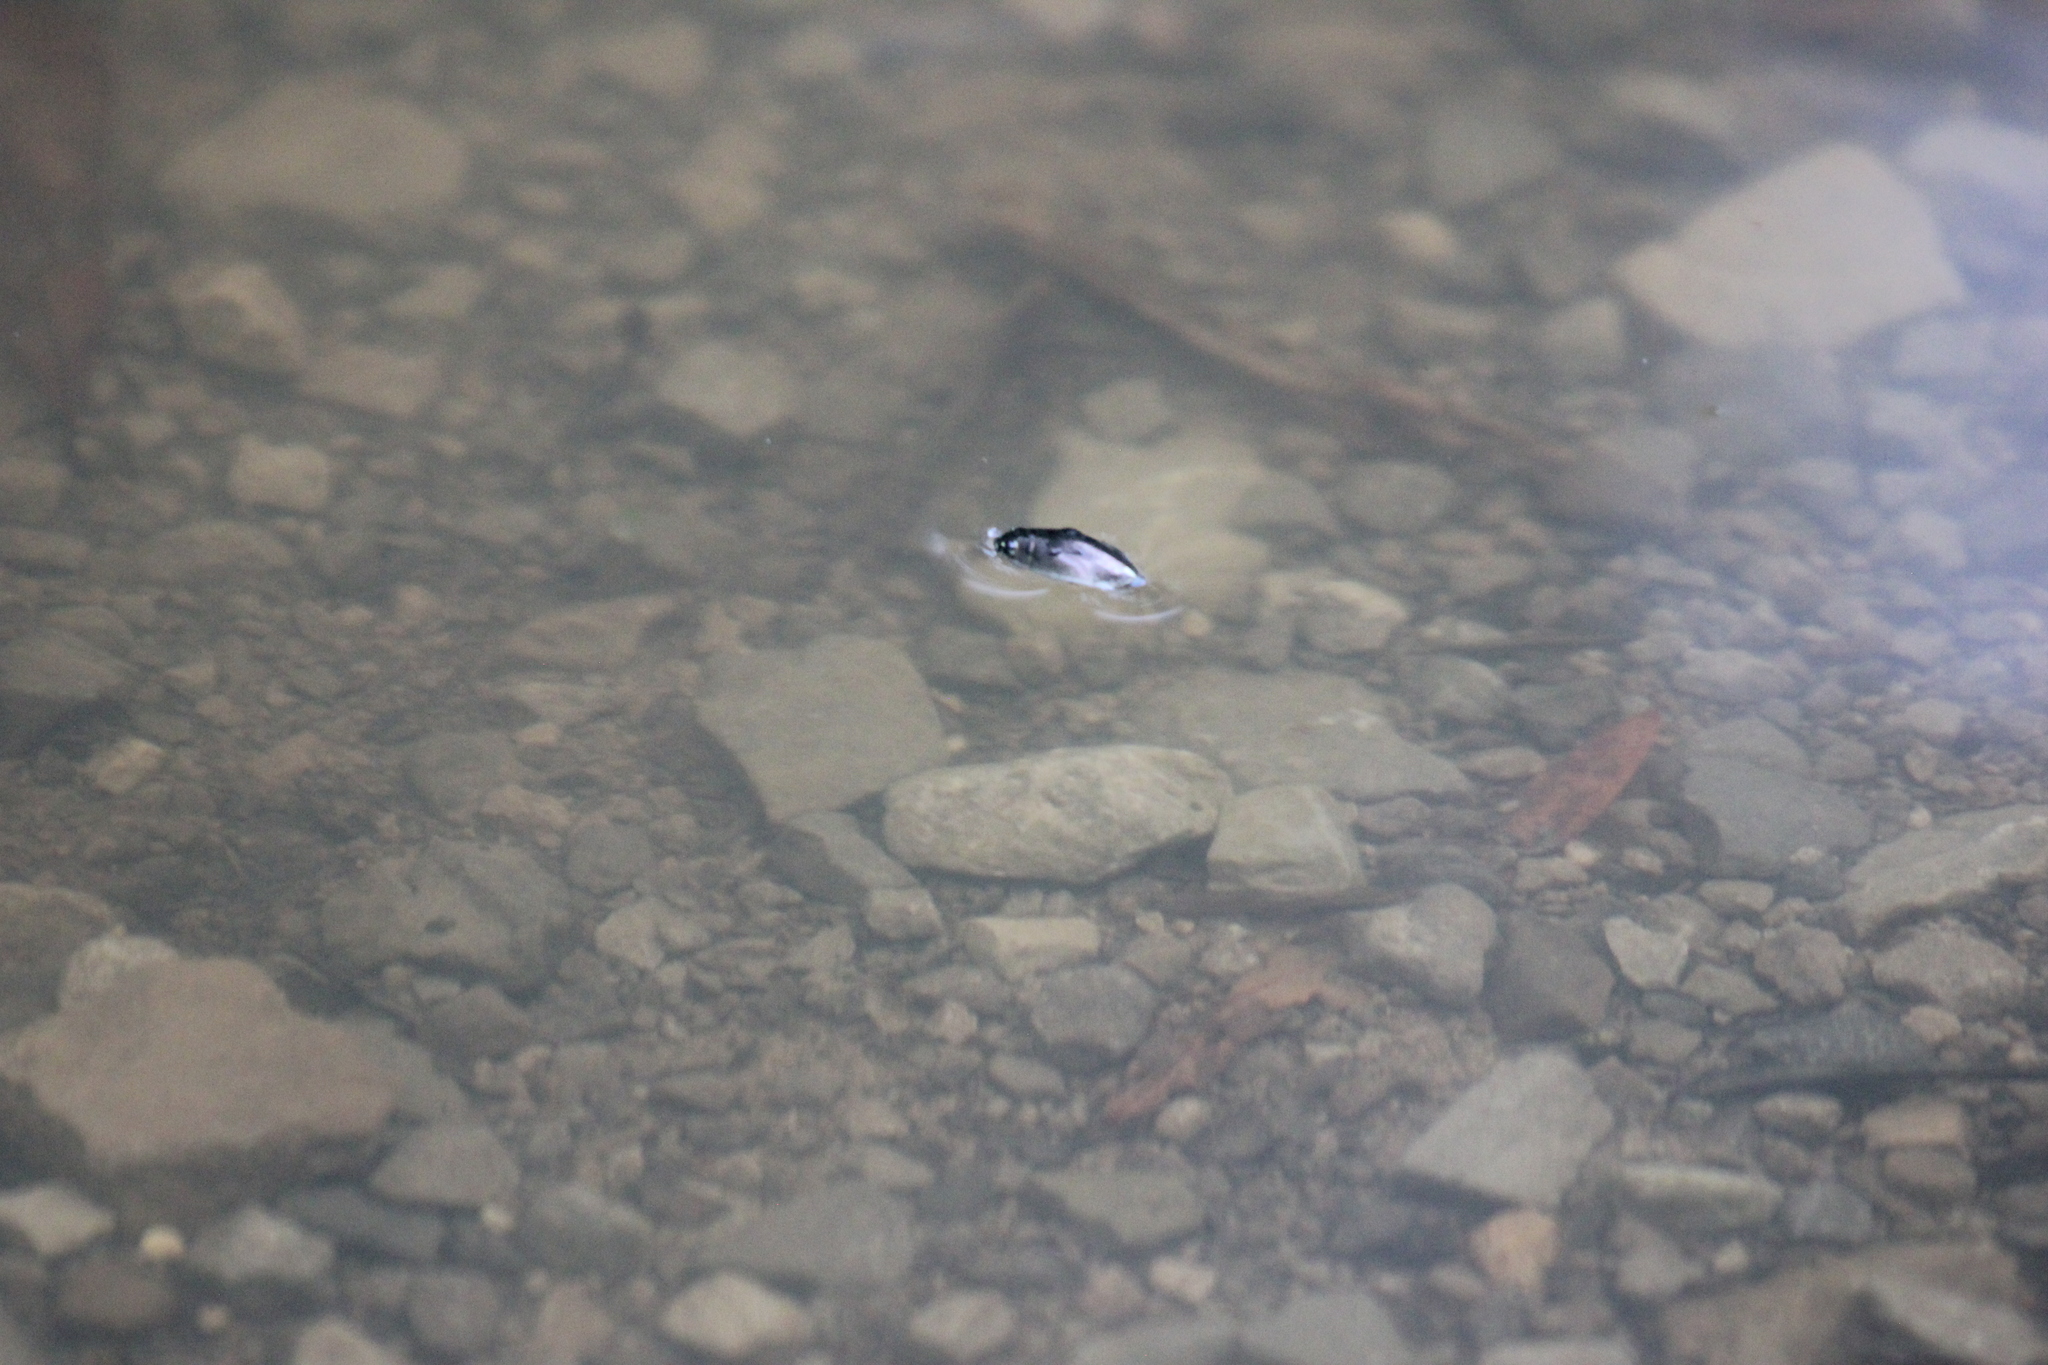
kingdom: Animalia
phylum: Arthropoda
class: Insecta
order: Coleoptera
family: Gyrinidae
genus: Dineutus
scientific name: Dineutus
